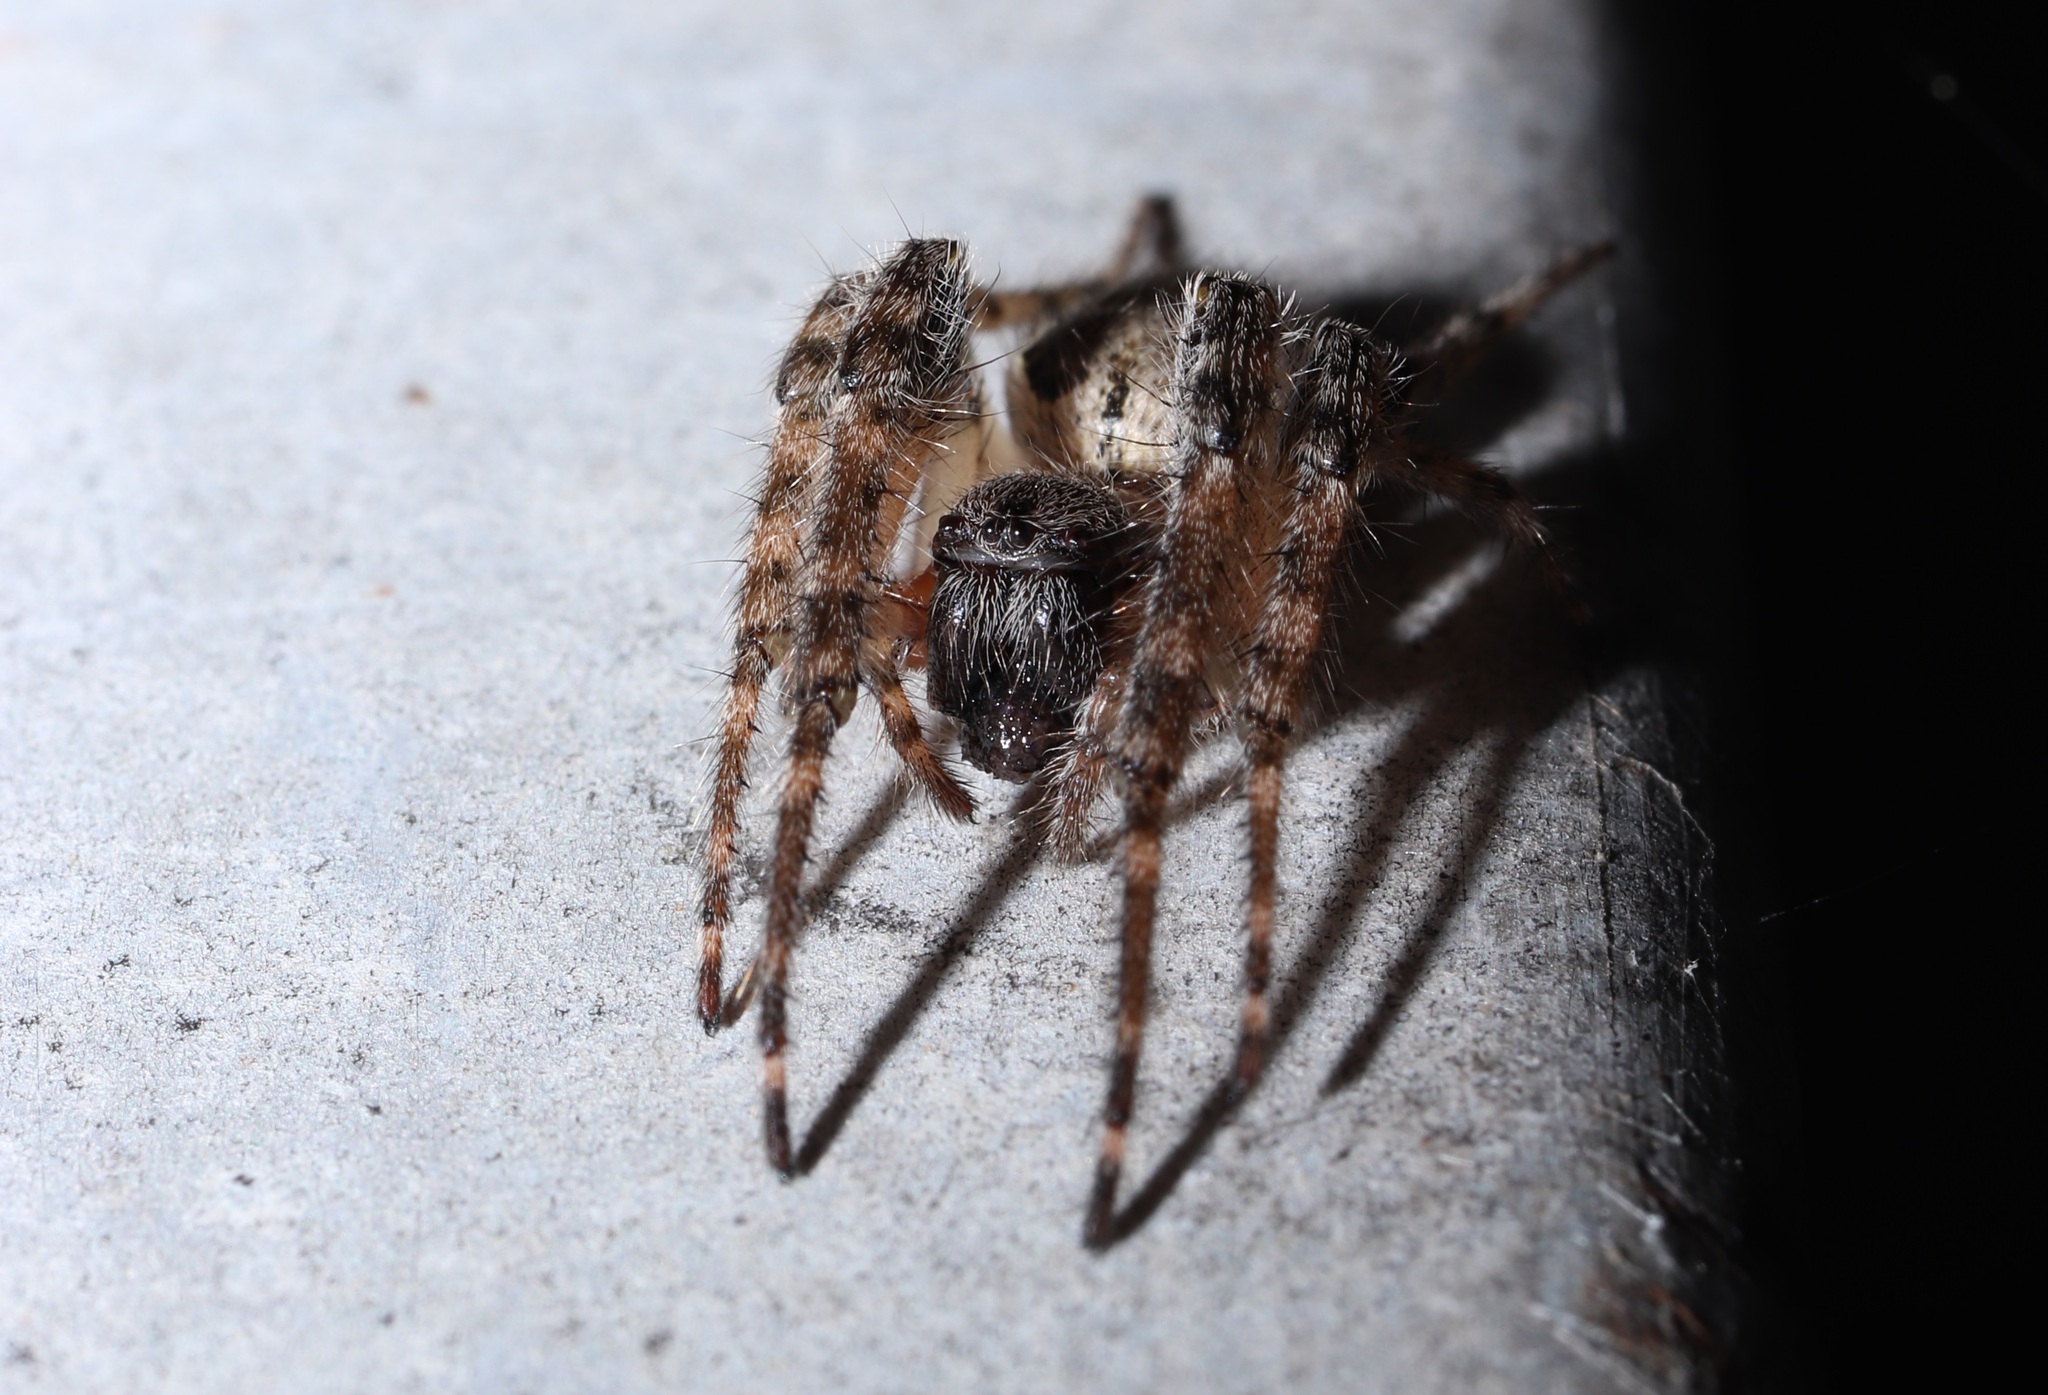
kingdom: Animalia
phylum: Arthropoda
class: Arachnida
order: Araneae
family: Araneidae
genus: Yaginumia
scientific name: Yaginumia sia
